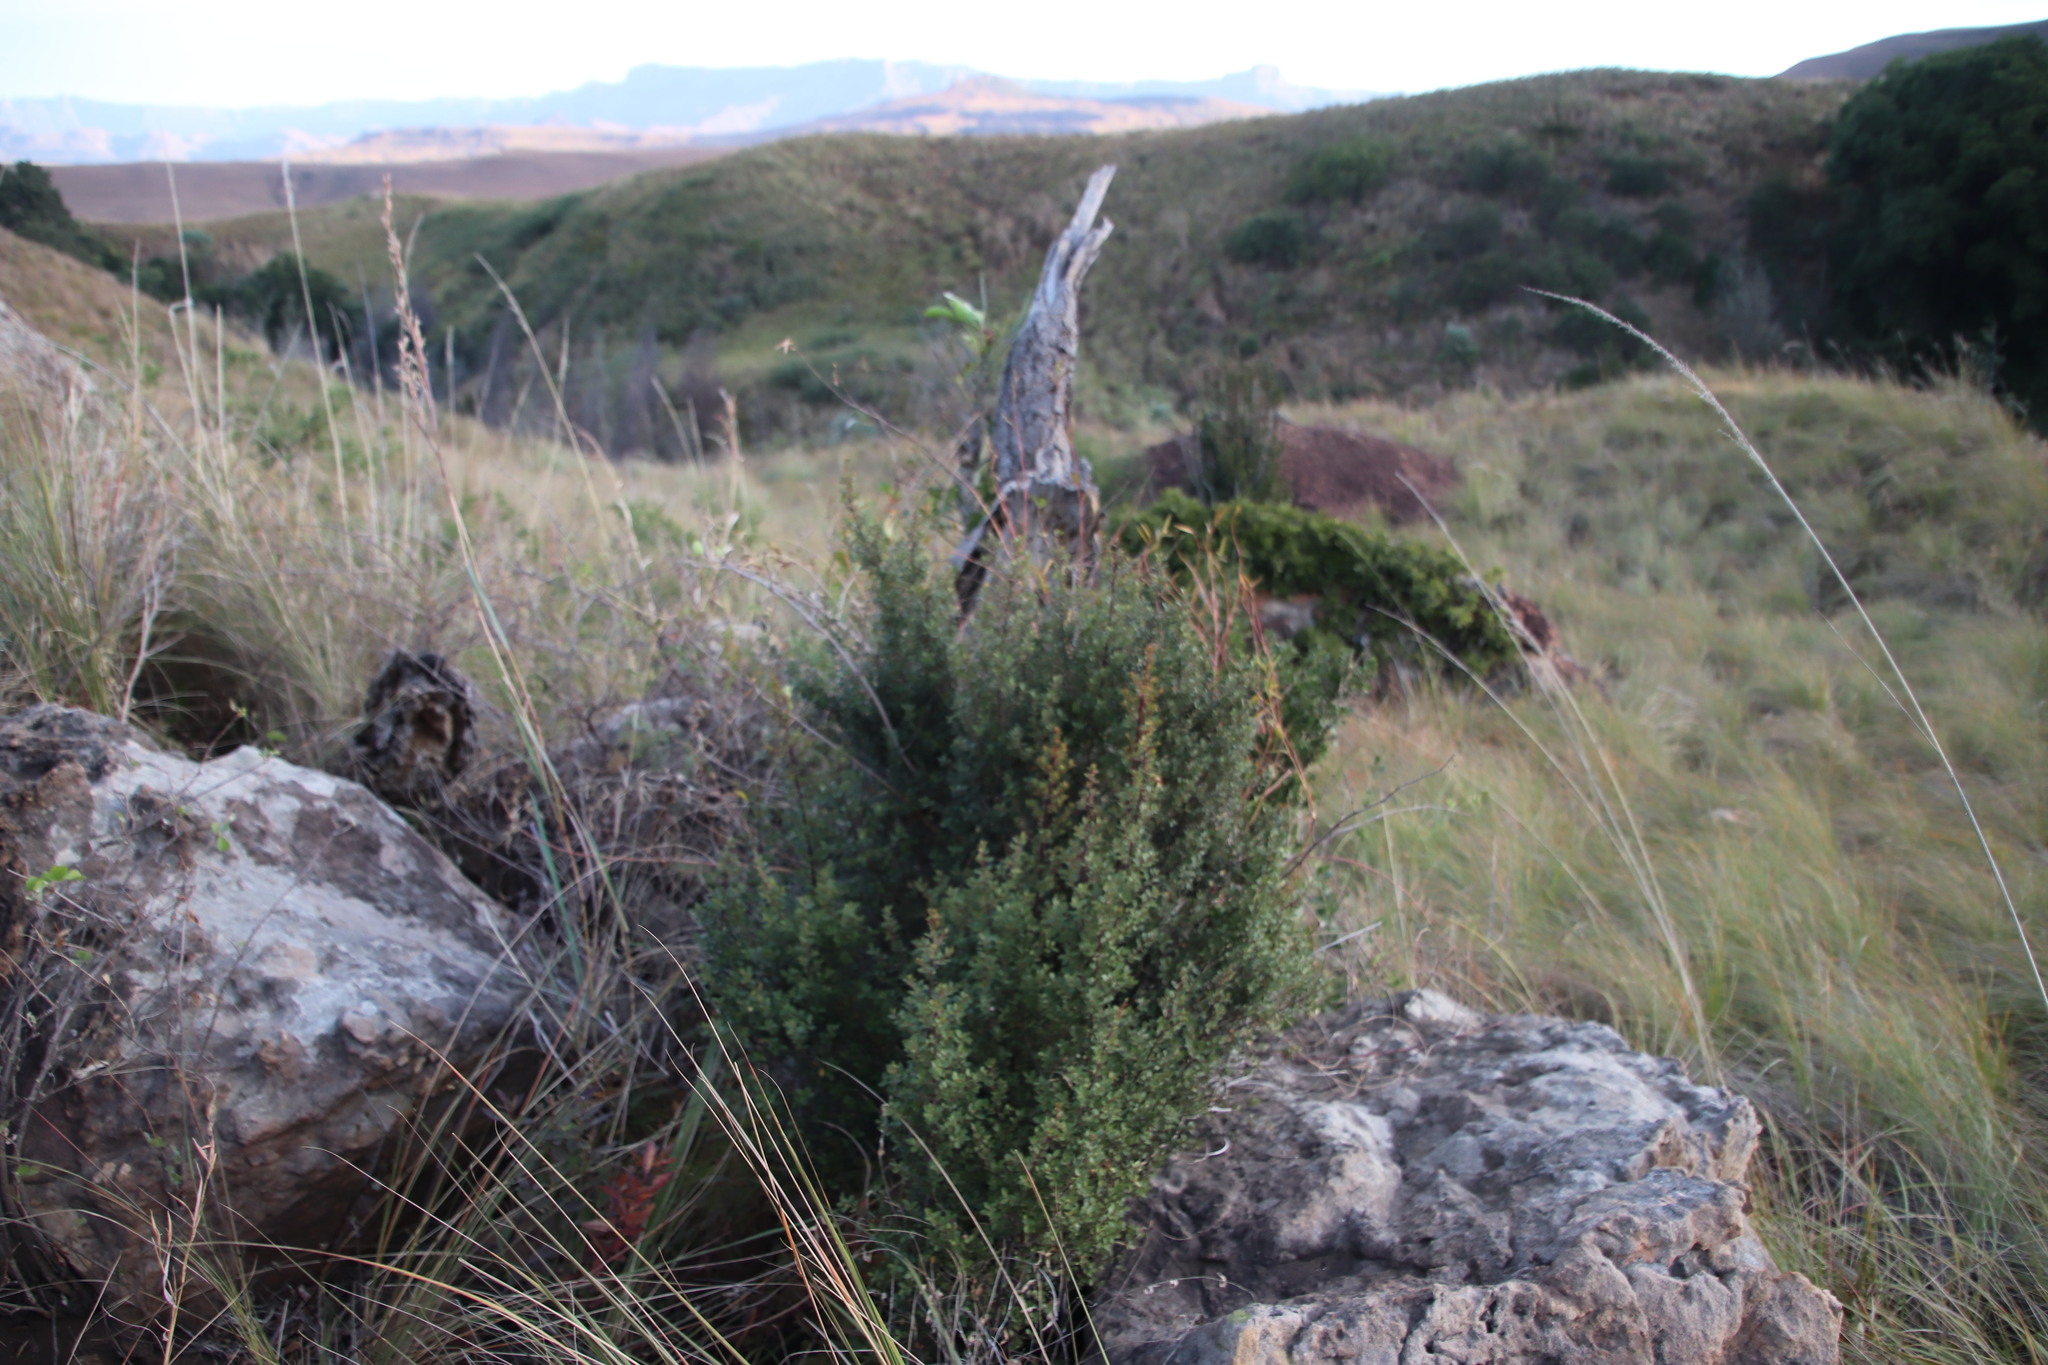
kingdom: Plantae
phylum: Tracheophyta
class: Magnoliopsida
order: Ericales
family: Primulaceae
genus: Myrsine
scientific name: Myrsine africana
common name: African-boxwood
